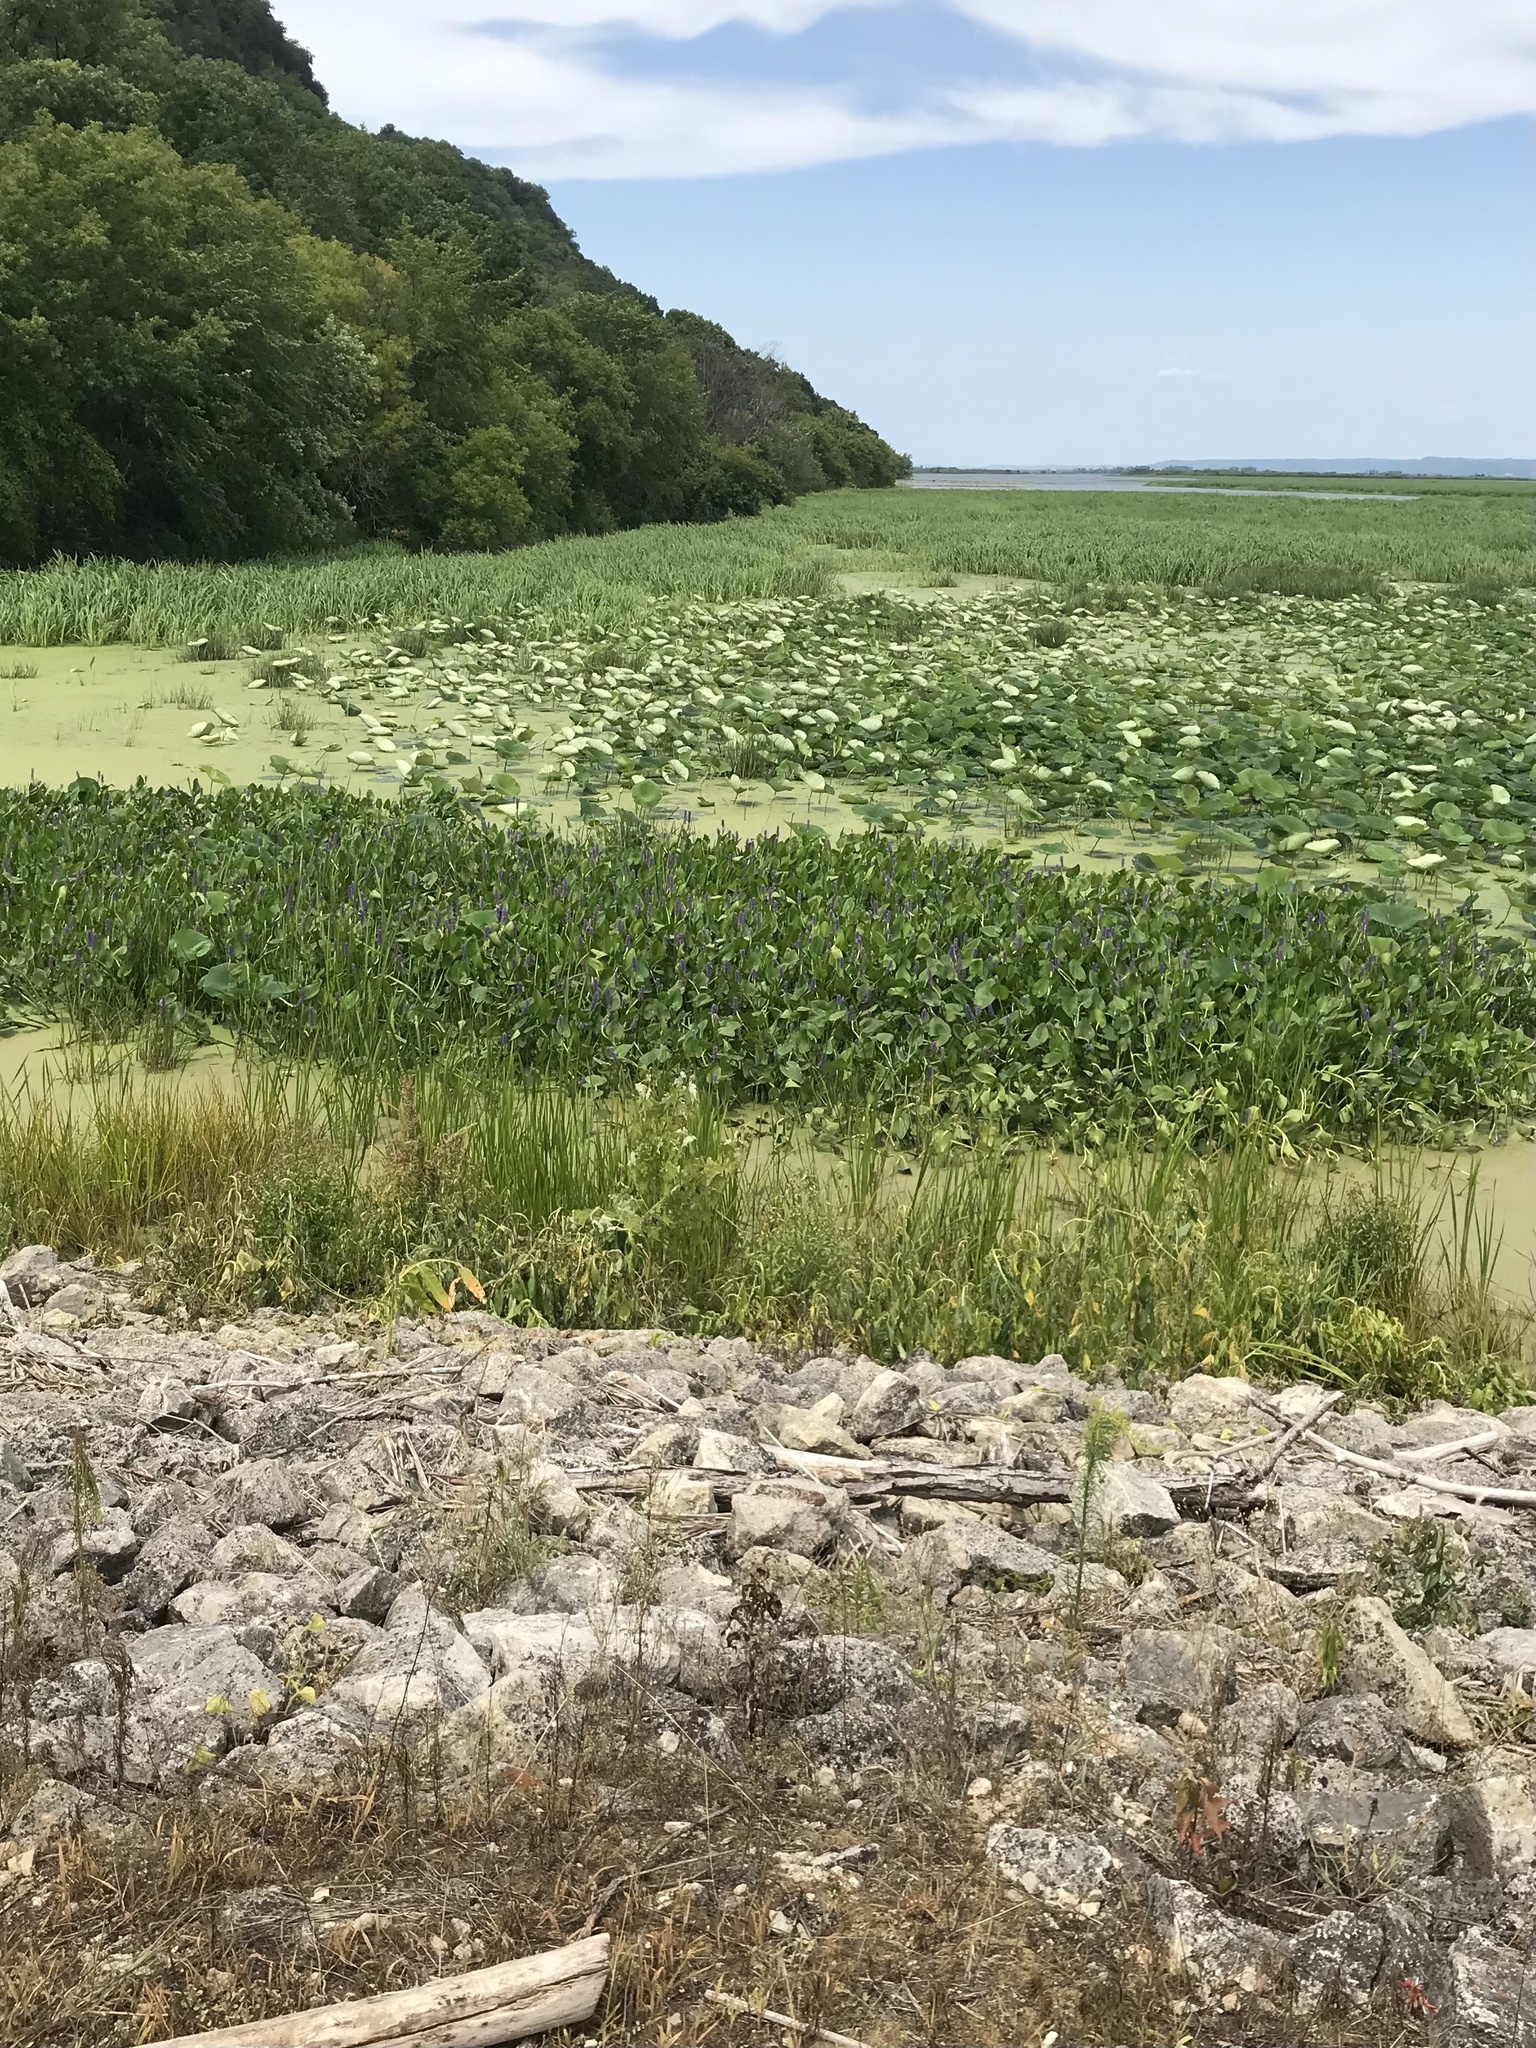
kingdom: Plantae
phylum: Tracheophyta
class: Liliopsida
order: Commelinales
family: Pontederiaceae
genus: Pontederia
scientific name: Pontederia cordata
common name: Pickerelweed
